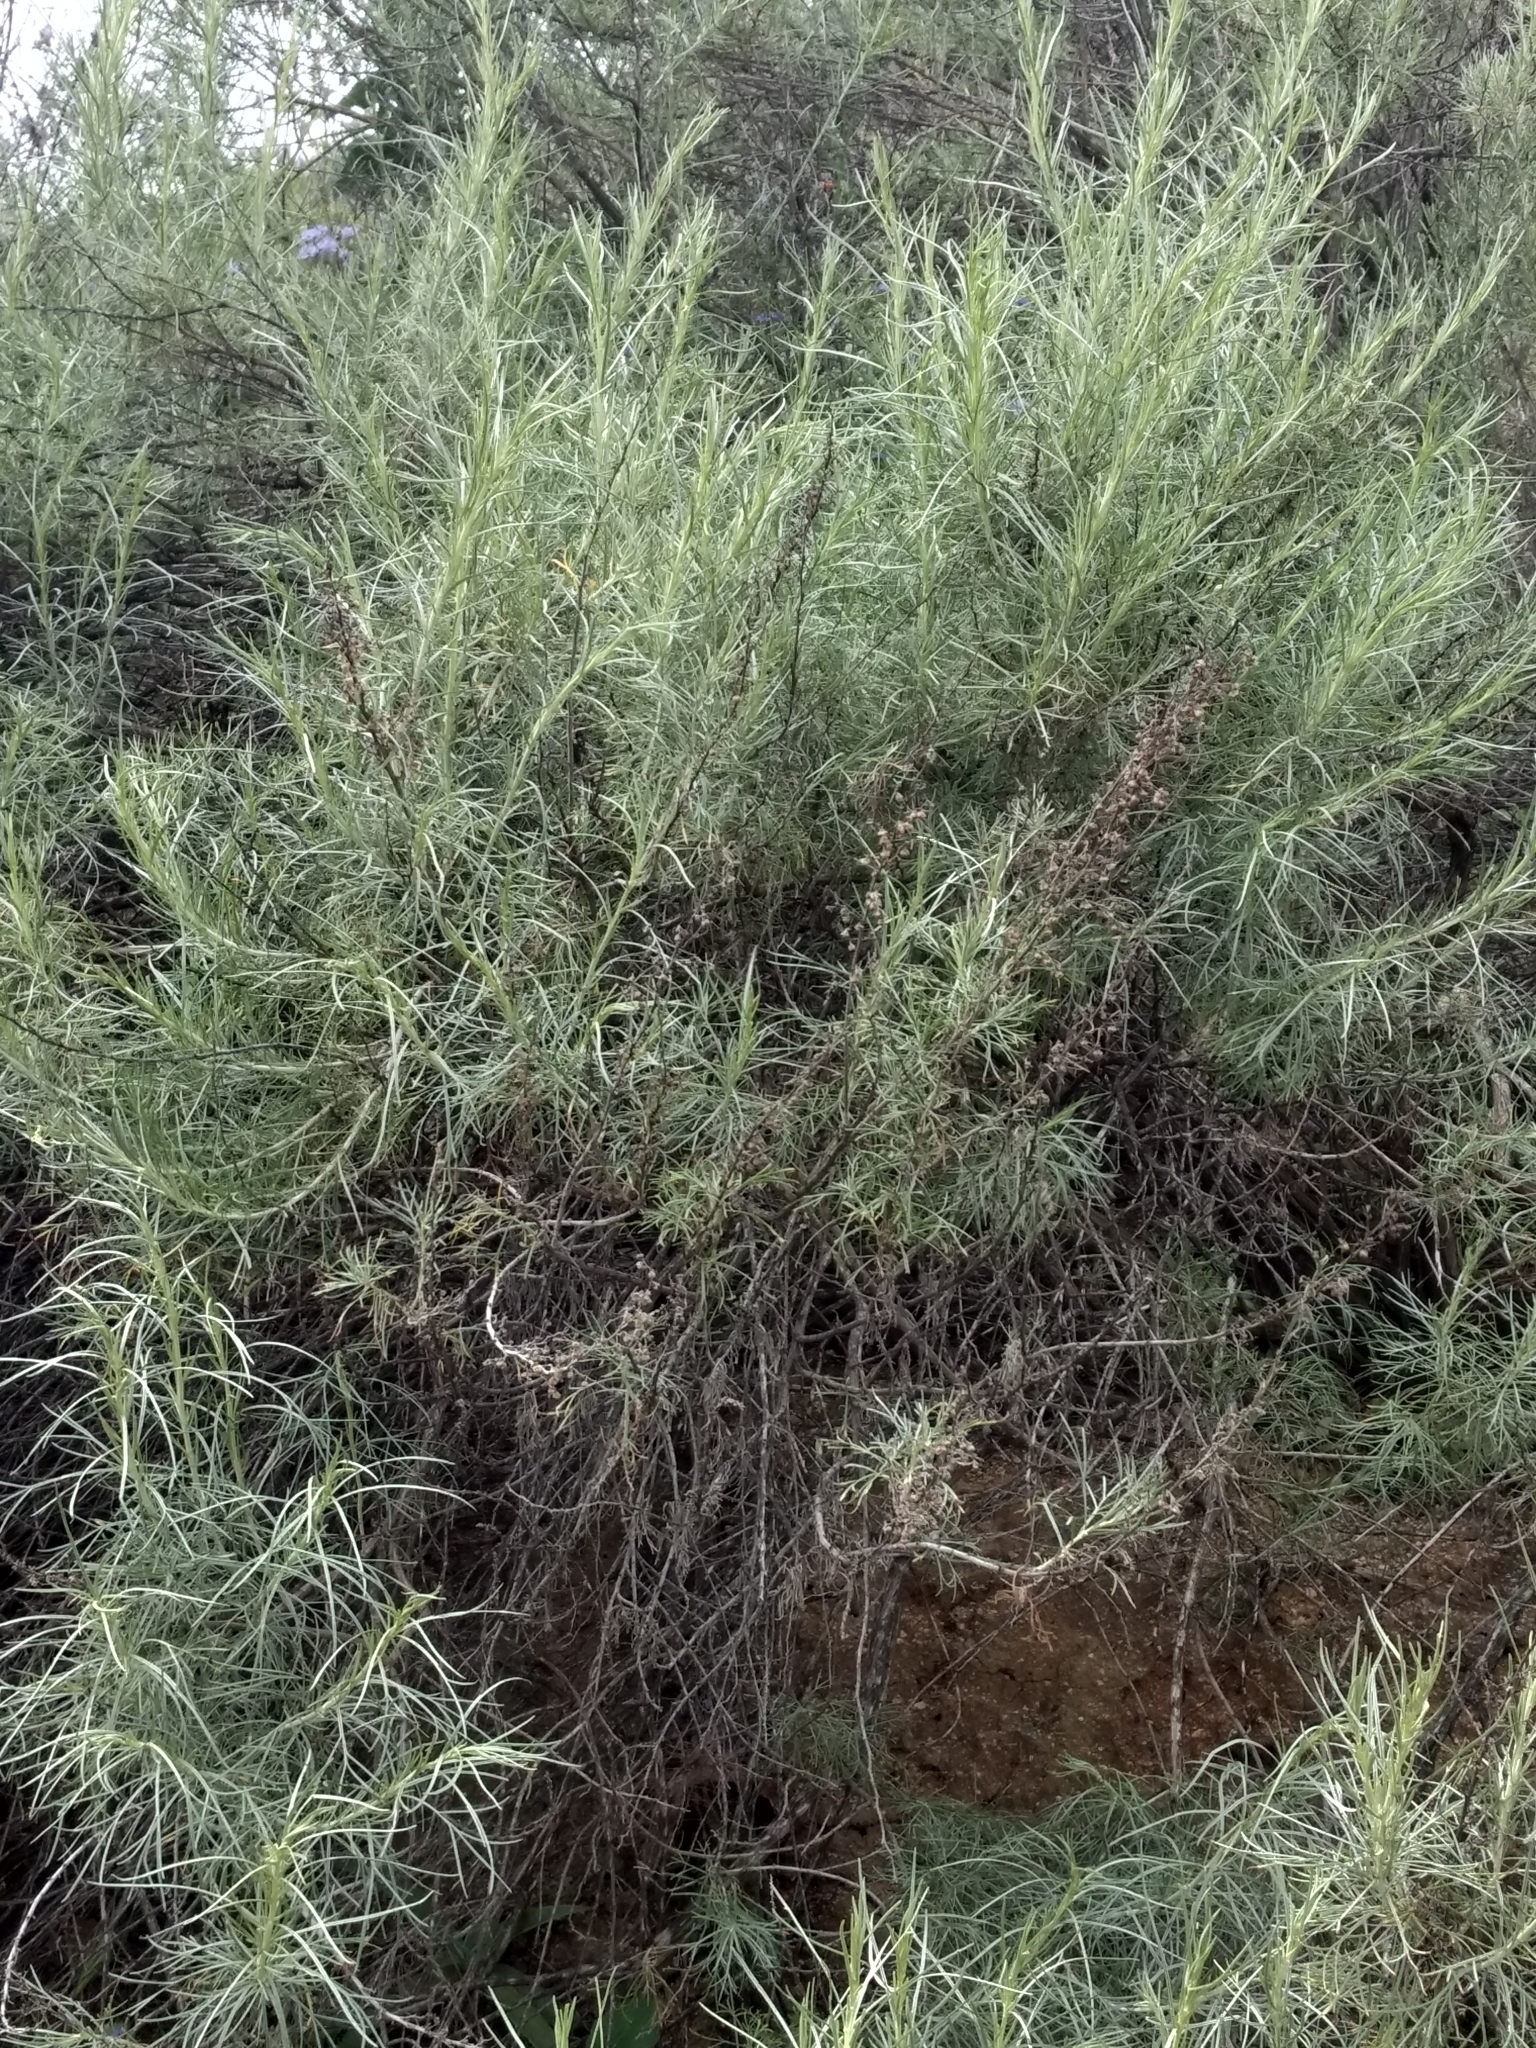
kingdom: Plantae
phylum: Tracheophyta
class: Magnoliopsida
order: Asterales
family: Asteraceae
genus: Artemisia
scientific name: Artemisia californica
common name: California sagebrush
